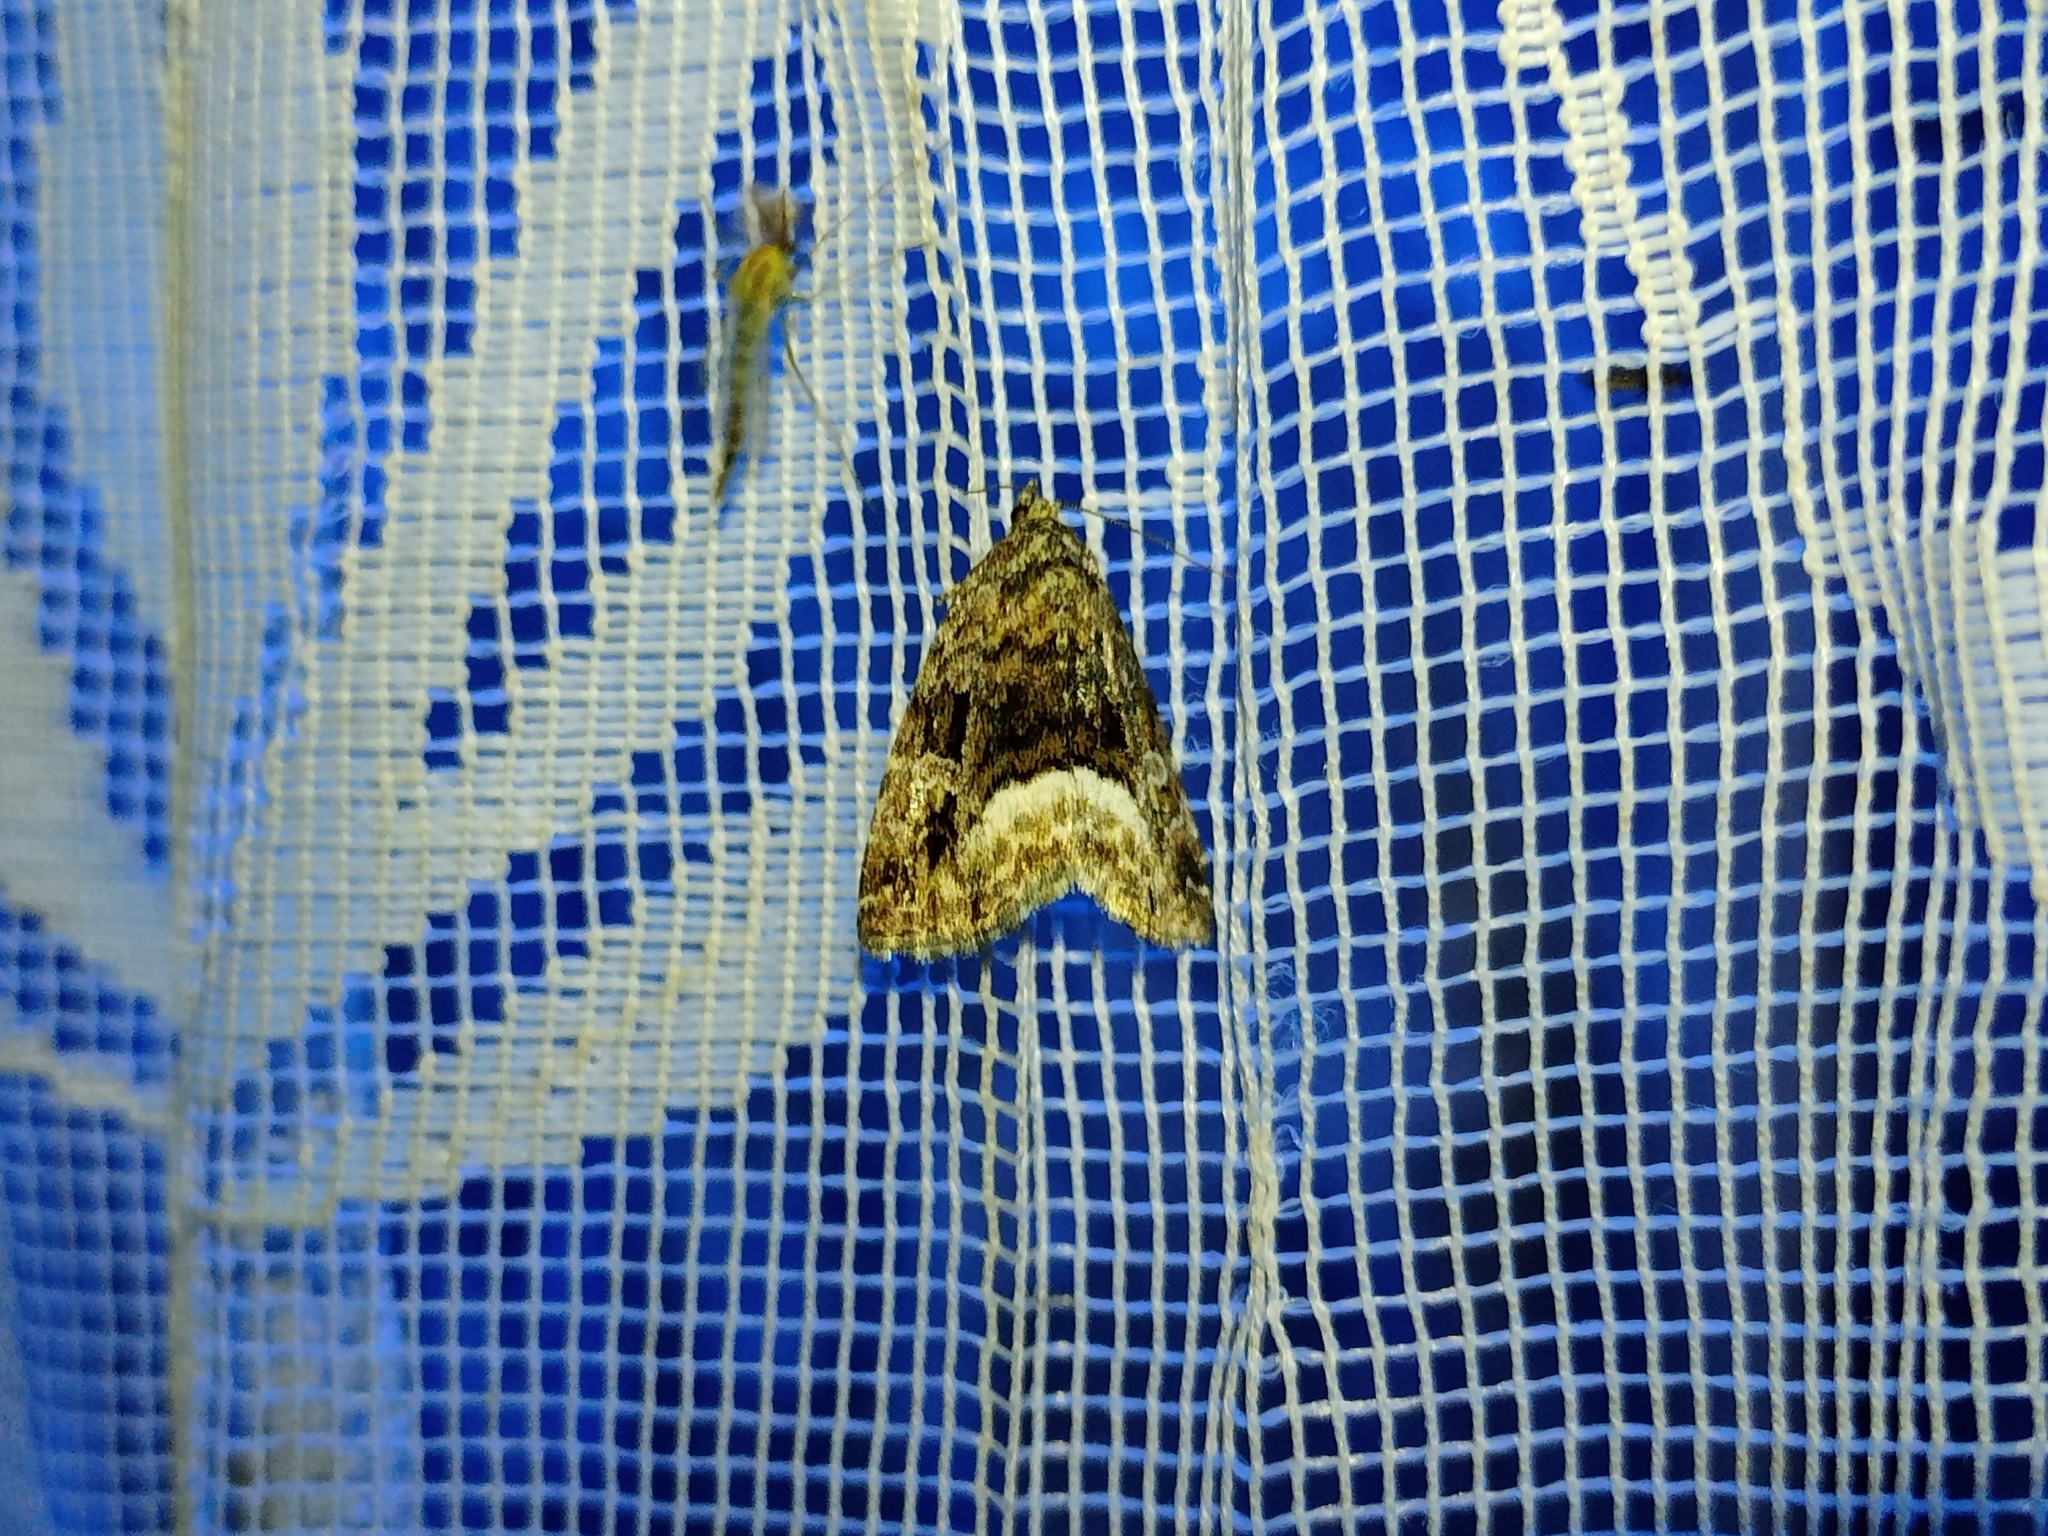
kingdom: Animalia
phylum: Arthropoda
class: Insecta
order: Lepidoptera
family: Noctuidae
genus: Deltote
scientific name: Deltote pygarga
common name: Marbled white spot
